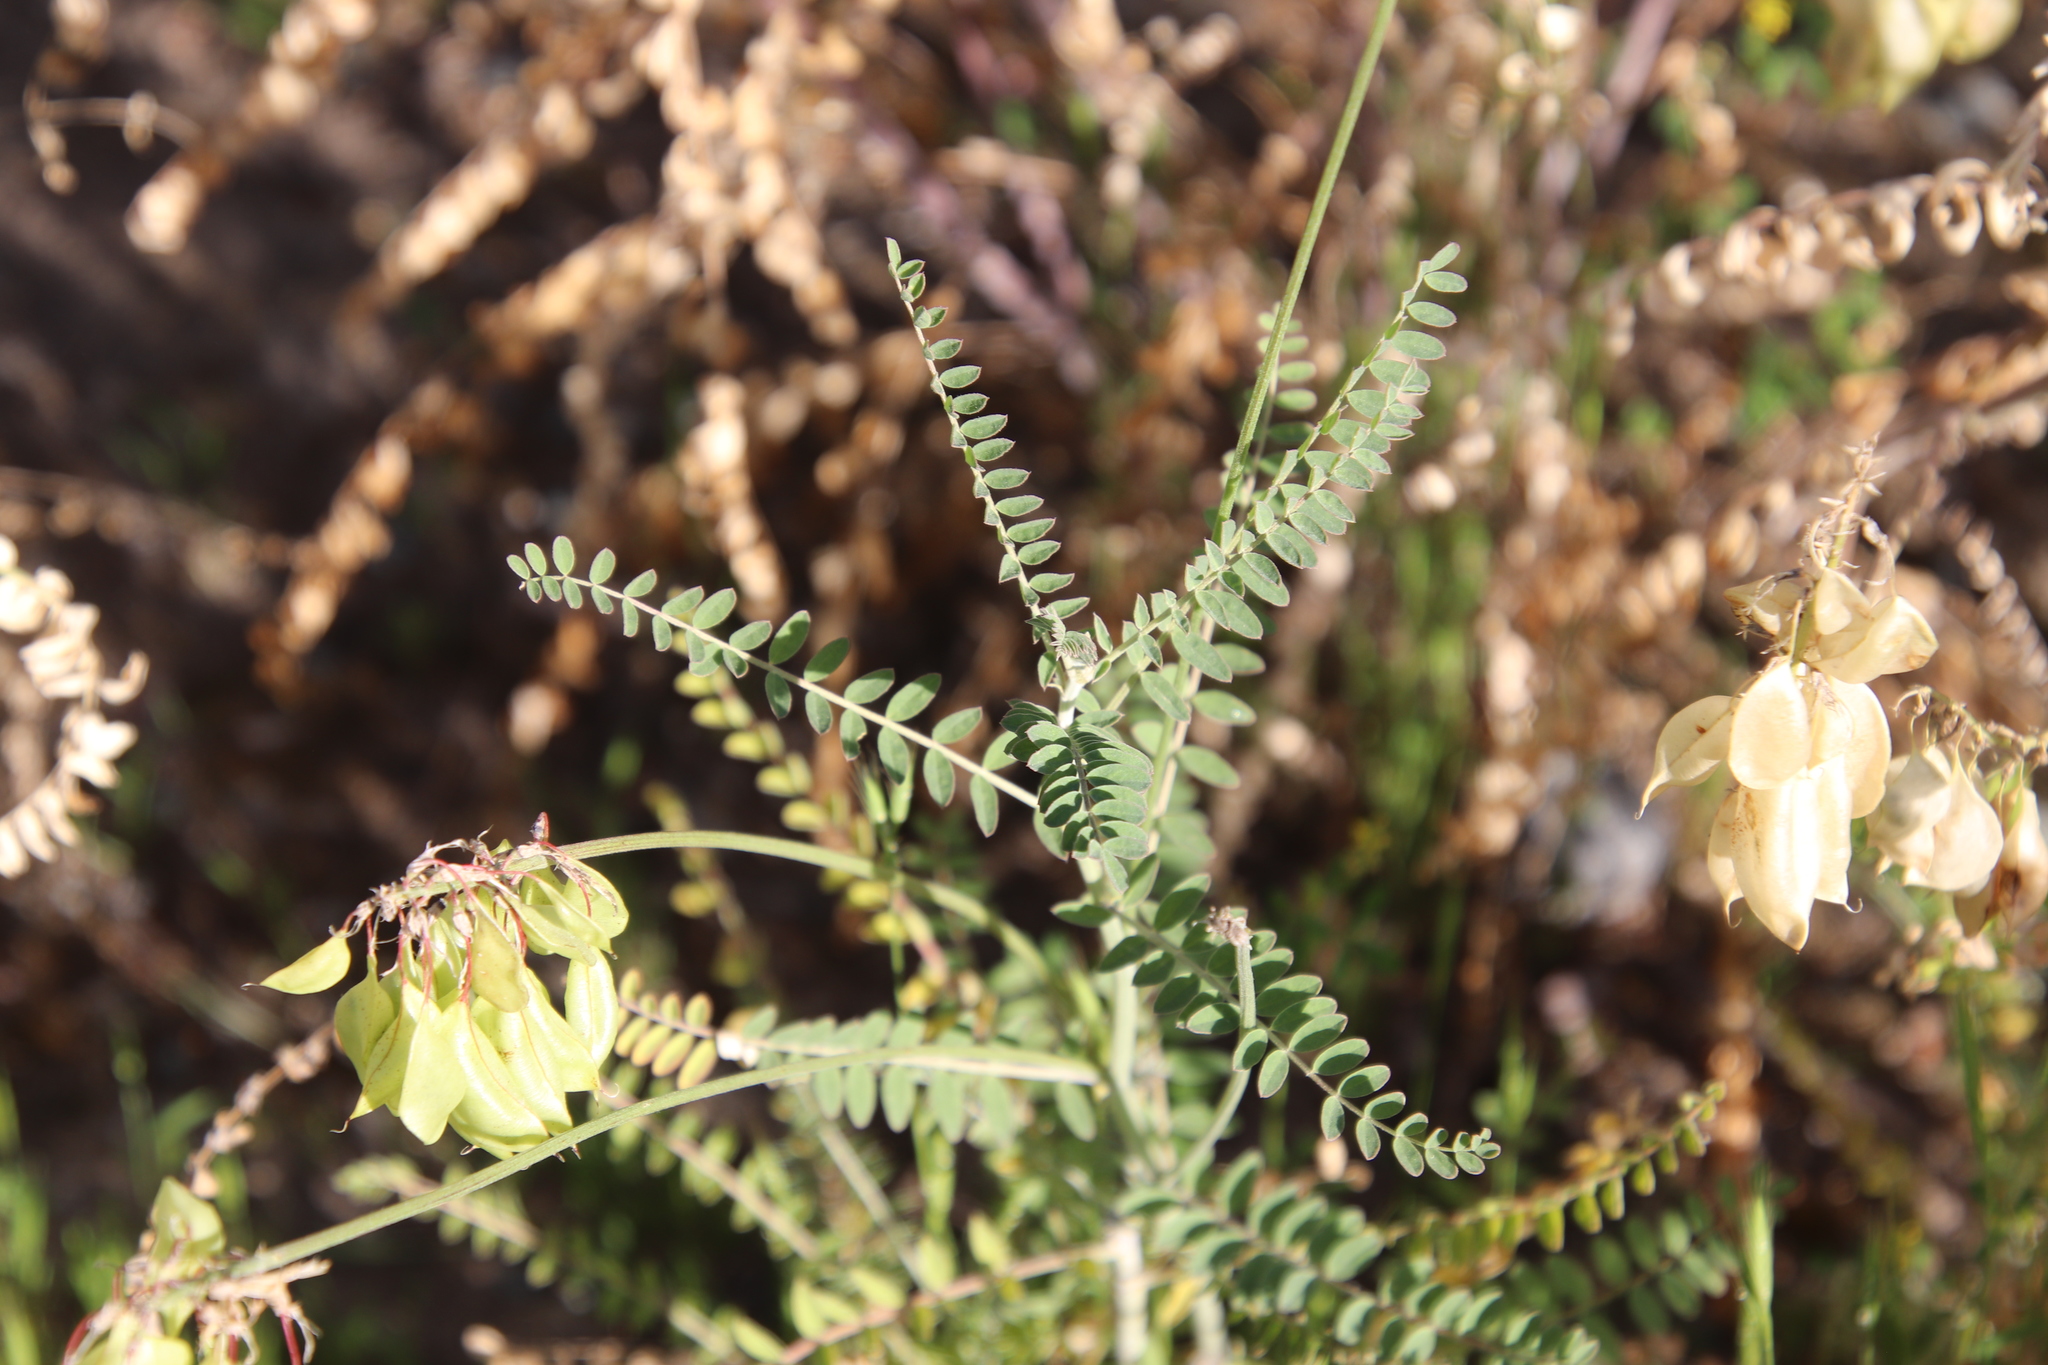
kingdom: Plantae
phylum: Tracheophyta
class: Magnoliopsida
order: Fabales
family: Fabaceae
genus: Astragalus
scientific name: Astragalus trichopodus
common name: Santa barbara milk-vetch
